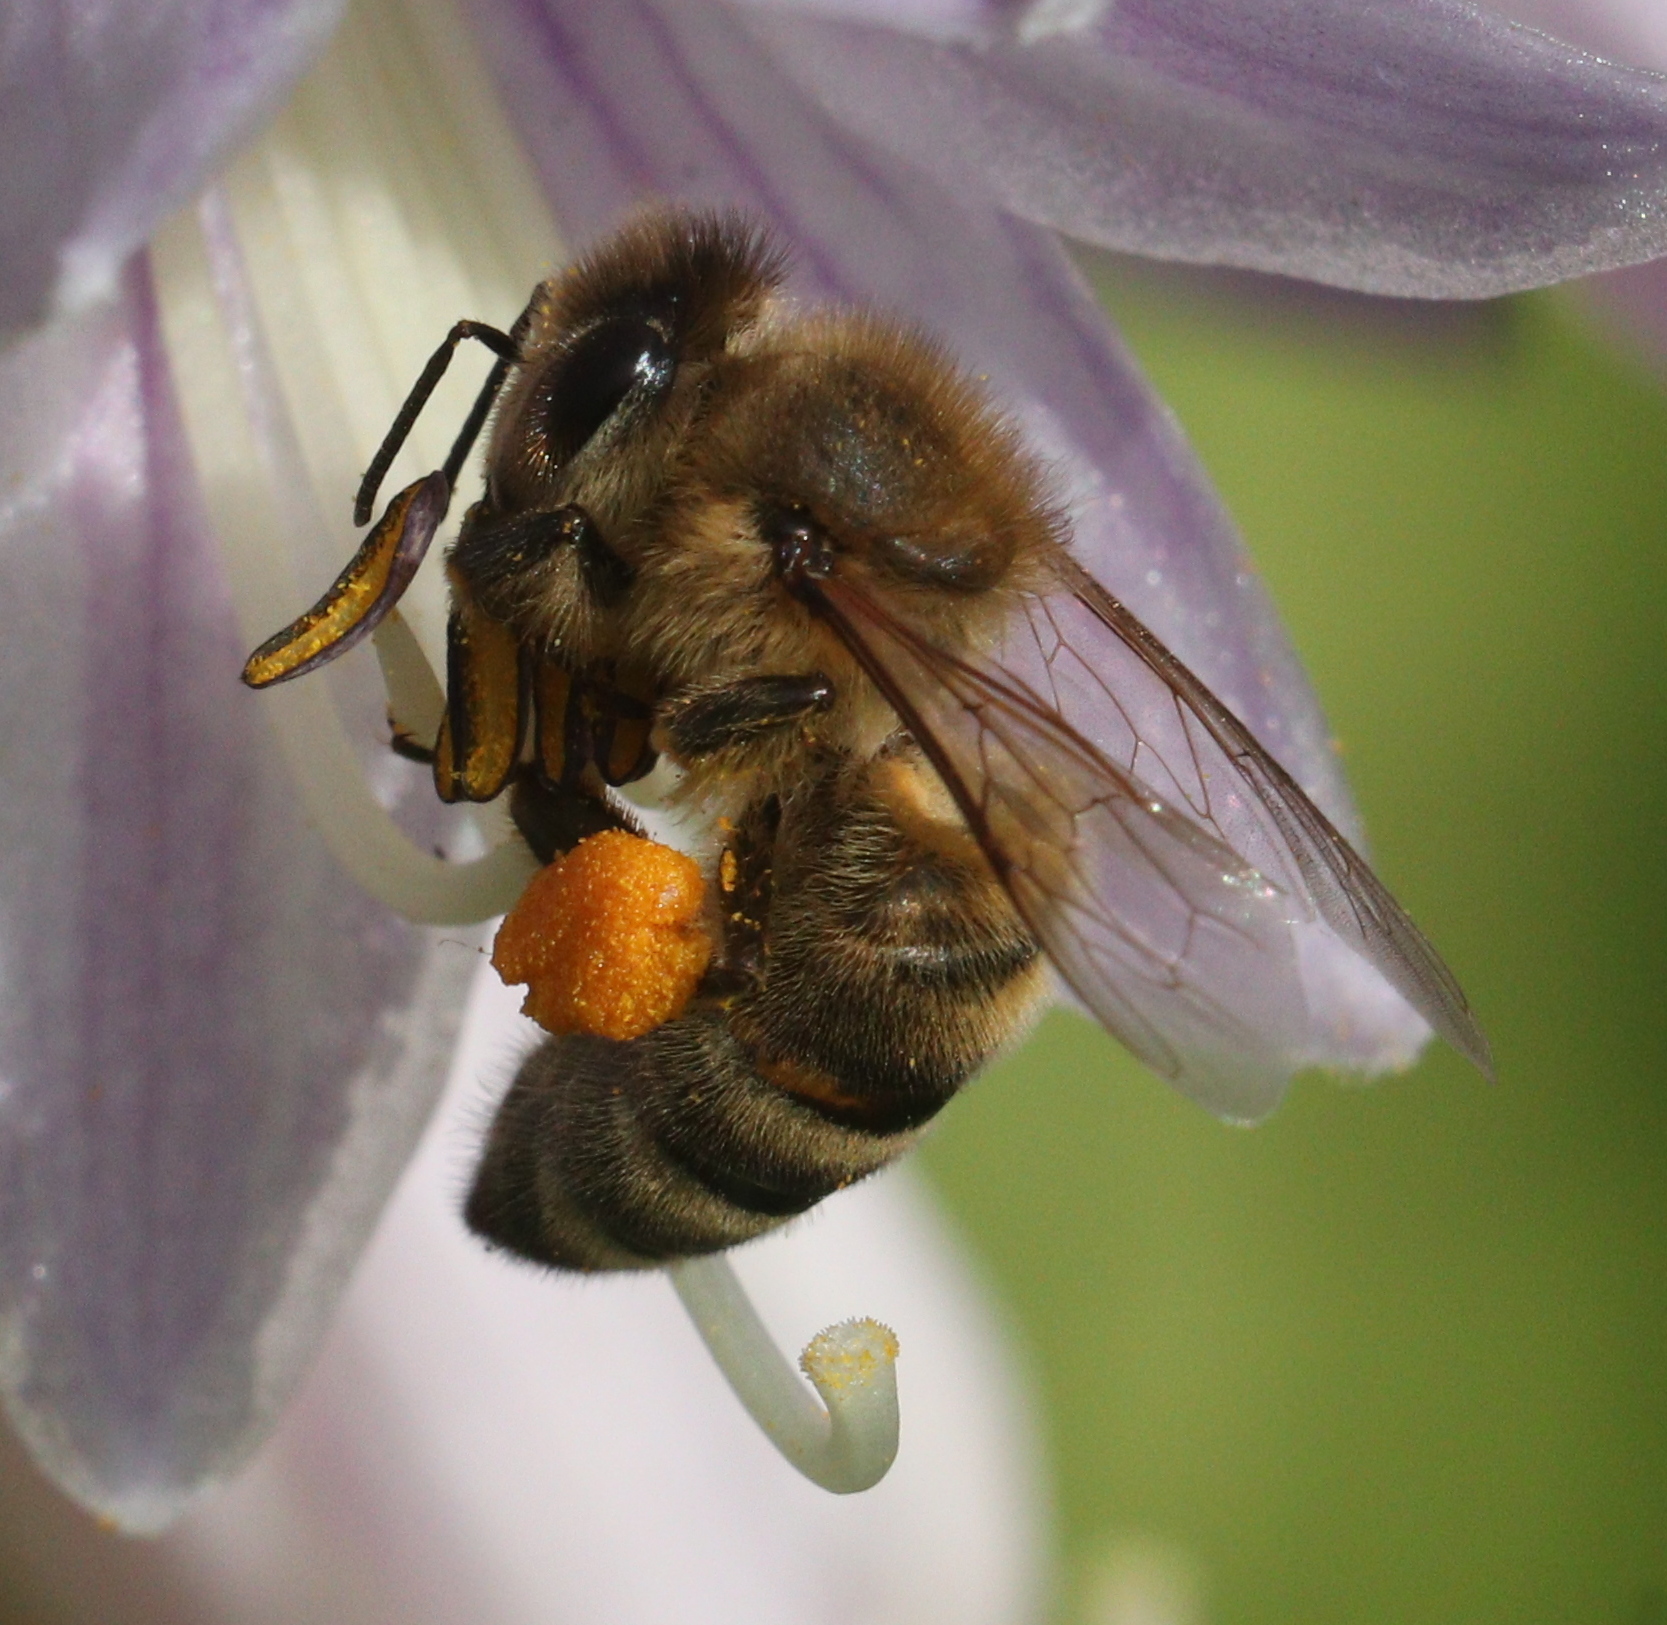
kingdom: Animalia
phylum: Arthropoda
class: Insecta
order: Hymenoptera
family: Apidae
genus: Apis
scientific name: Apis mellifera
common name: Honey bee
